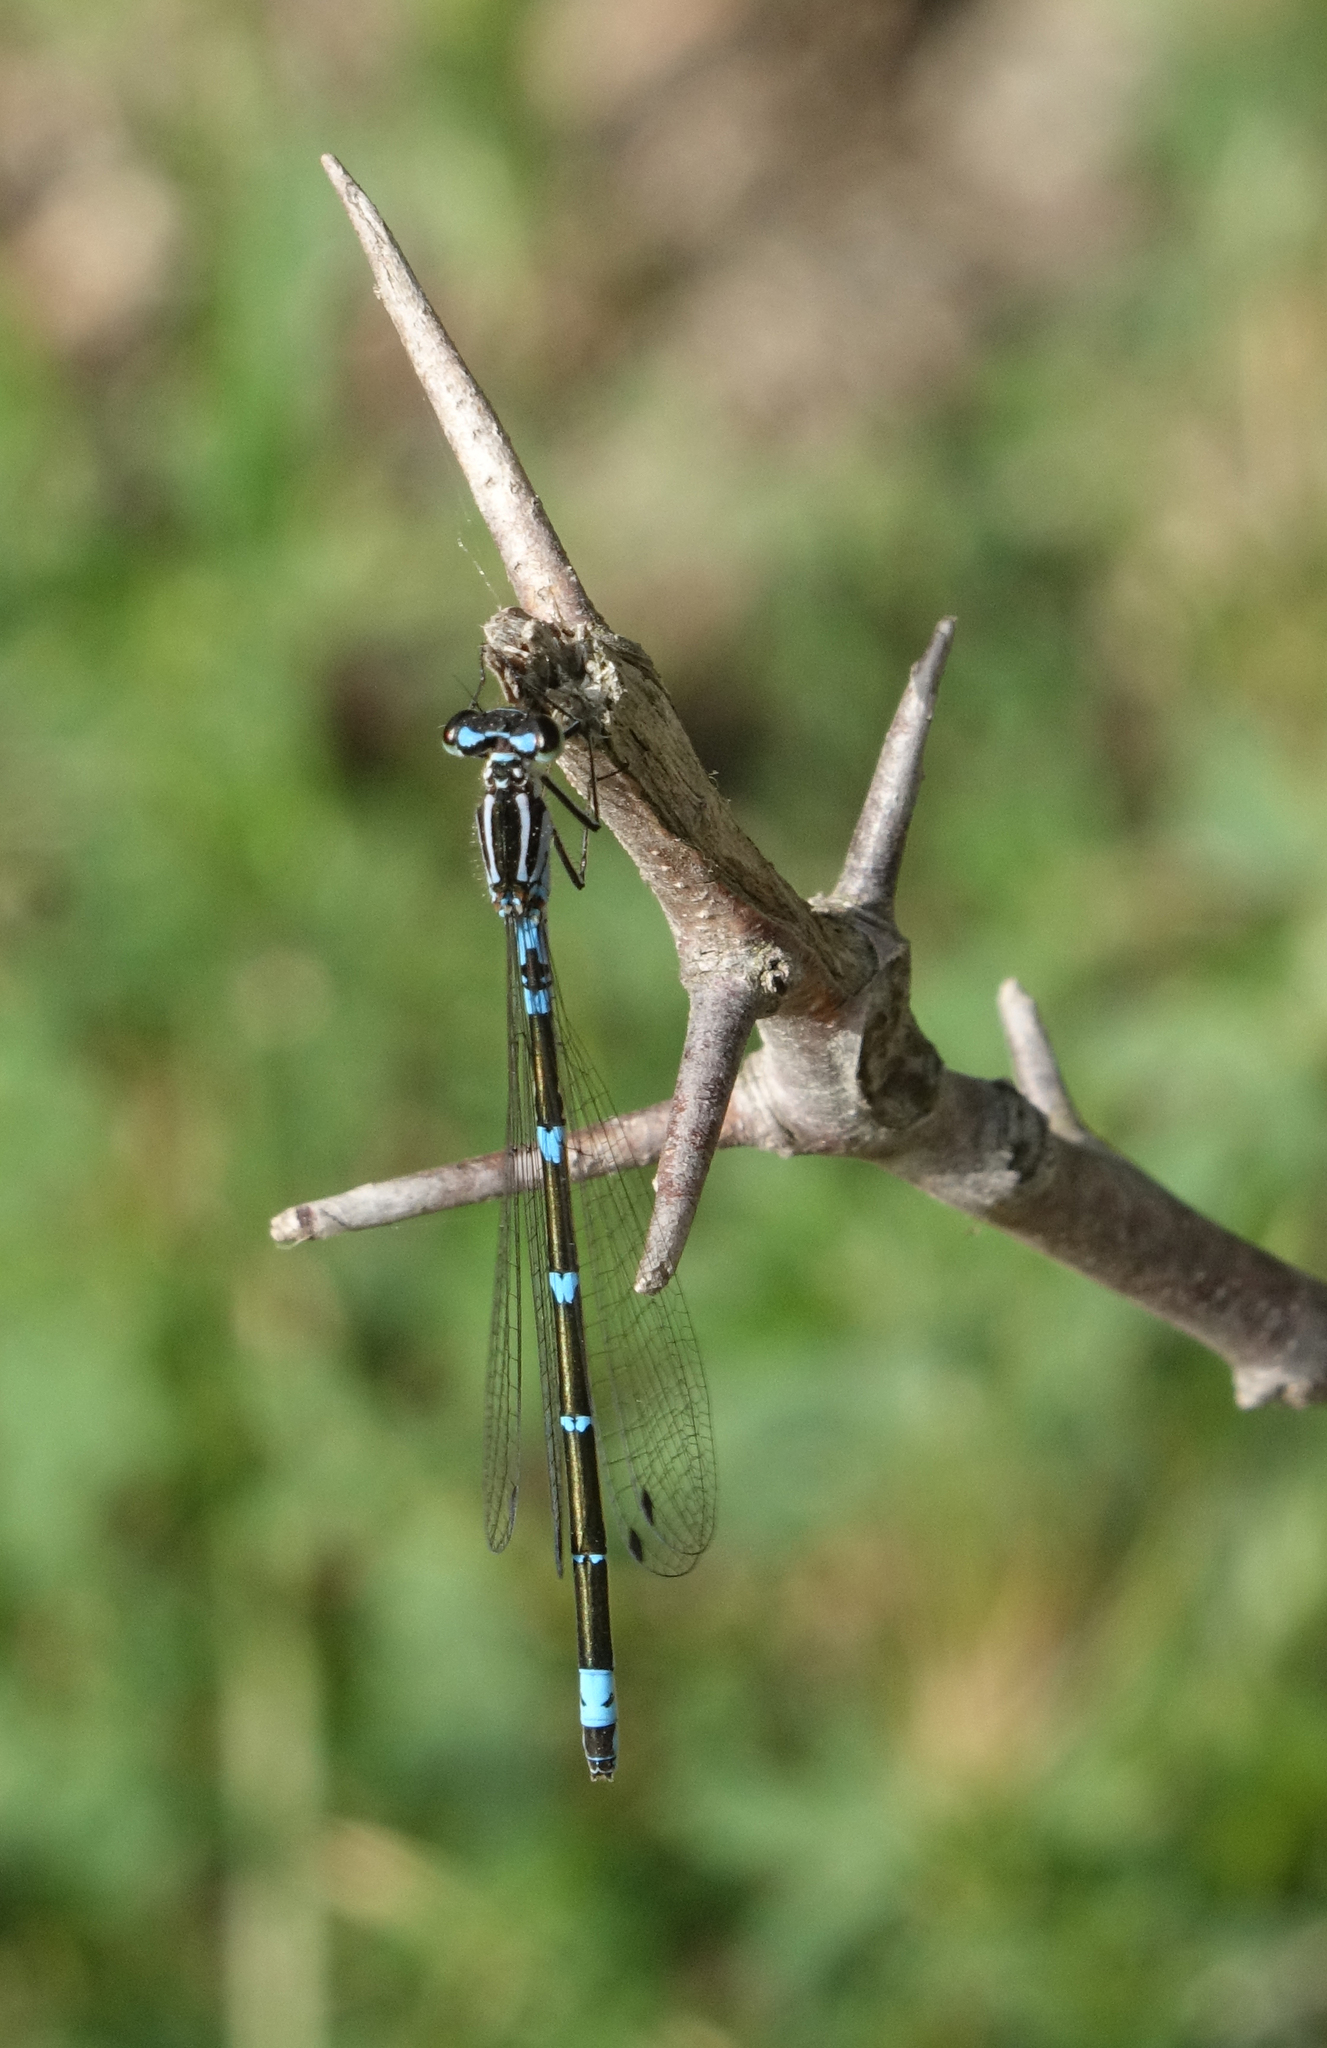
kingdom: Animalia
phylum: Arthropoda
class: Insecta
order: Odonata
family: Coenagrionidae
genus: Coenagrion
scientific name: Coenagrion pulchellum
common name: Variable bluet
